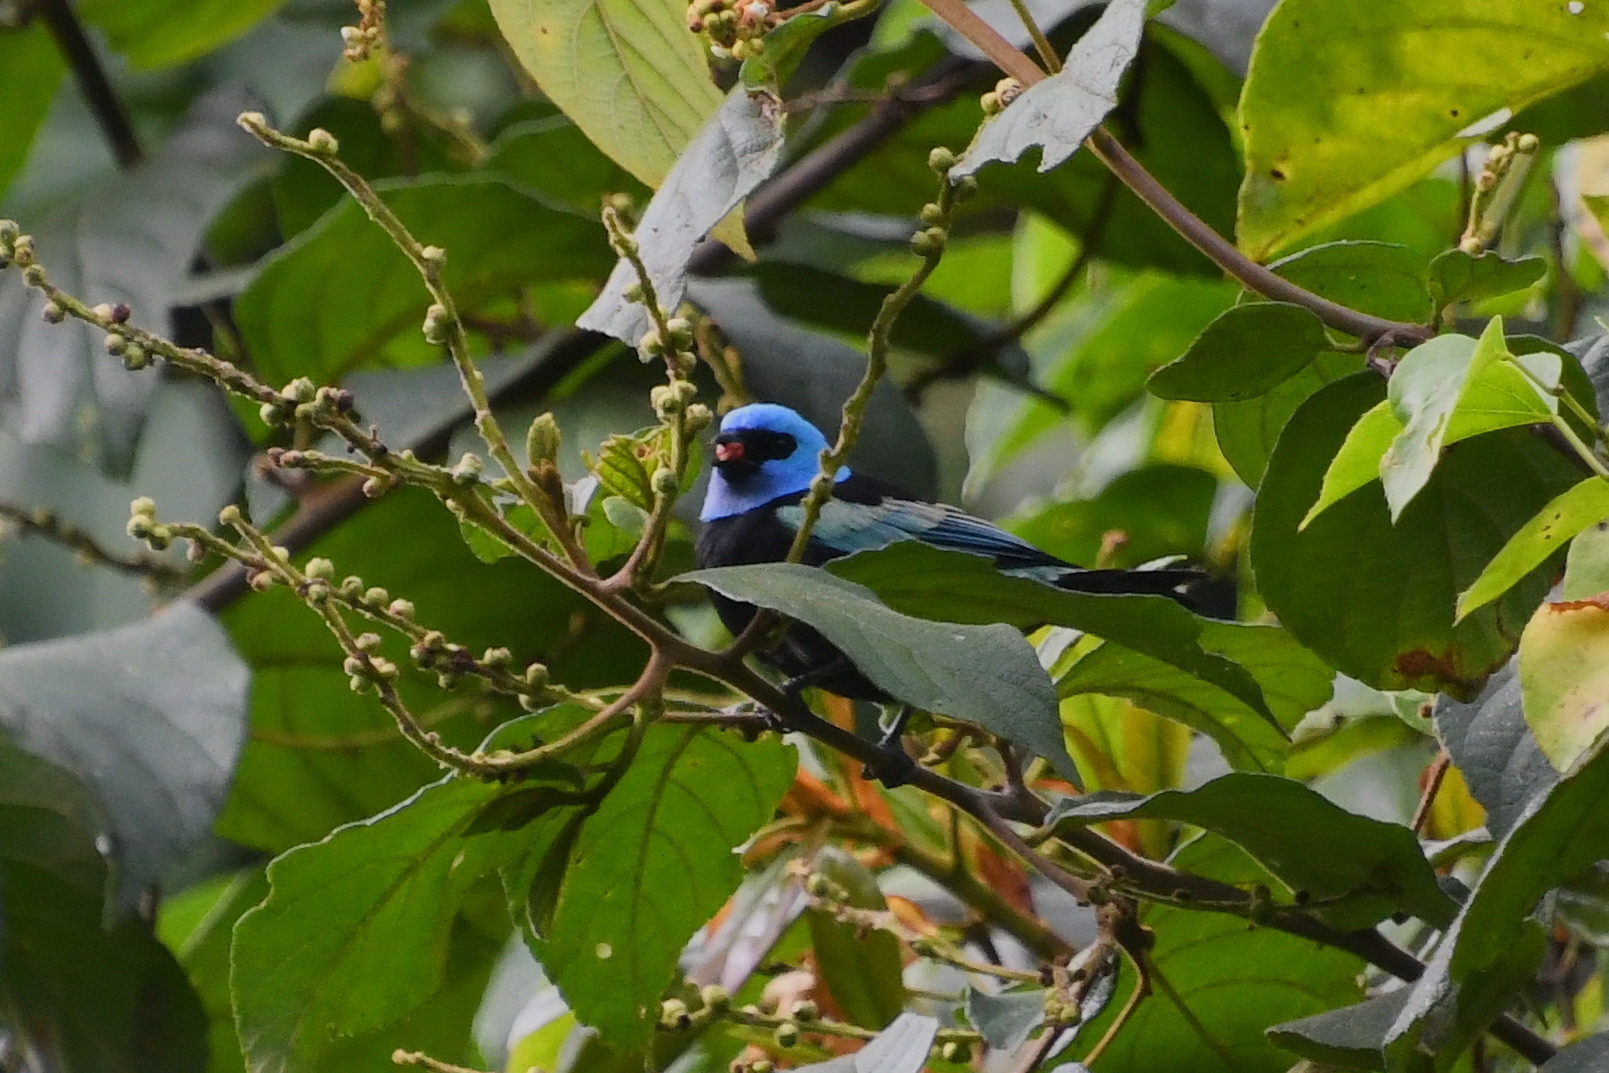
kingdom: Animalia
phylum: Chordata
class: Aves
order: Passeriformes
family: Thraupidae
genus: Stilpnia
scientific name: Stilpnia cyanicollis
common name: Blue-necked tanager
